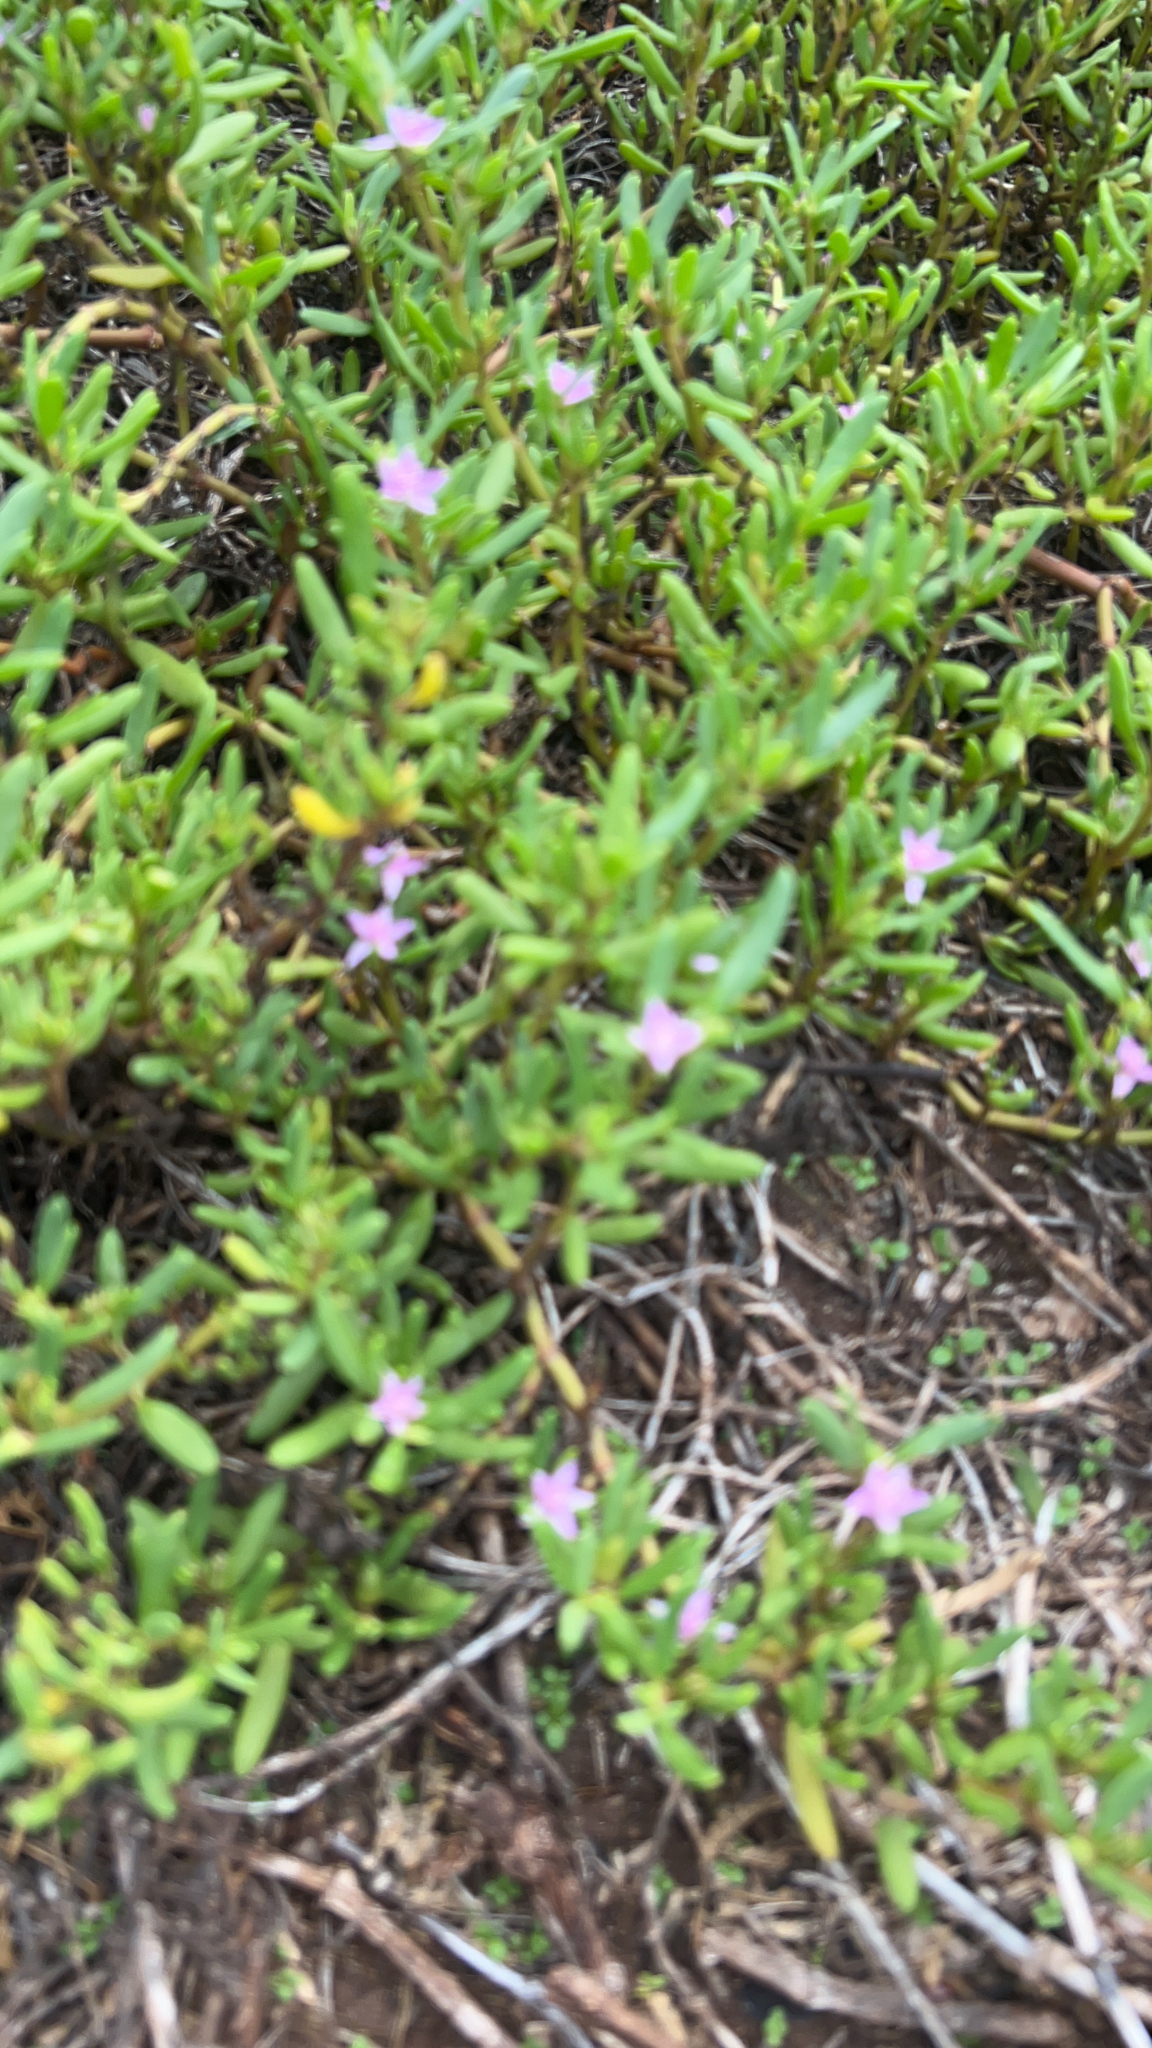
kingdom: Plantae
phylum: Tracheophyta
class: Magnoliopsida
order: Caryophyllales
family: Aizoaceae
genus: Sesuvium
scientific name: Sesuvium portulacastrum
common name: Sea-purslane
